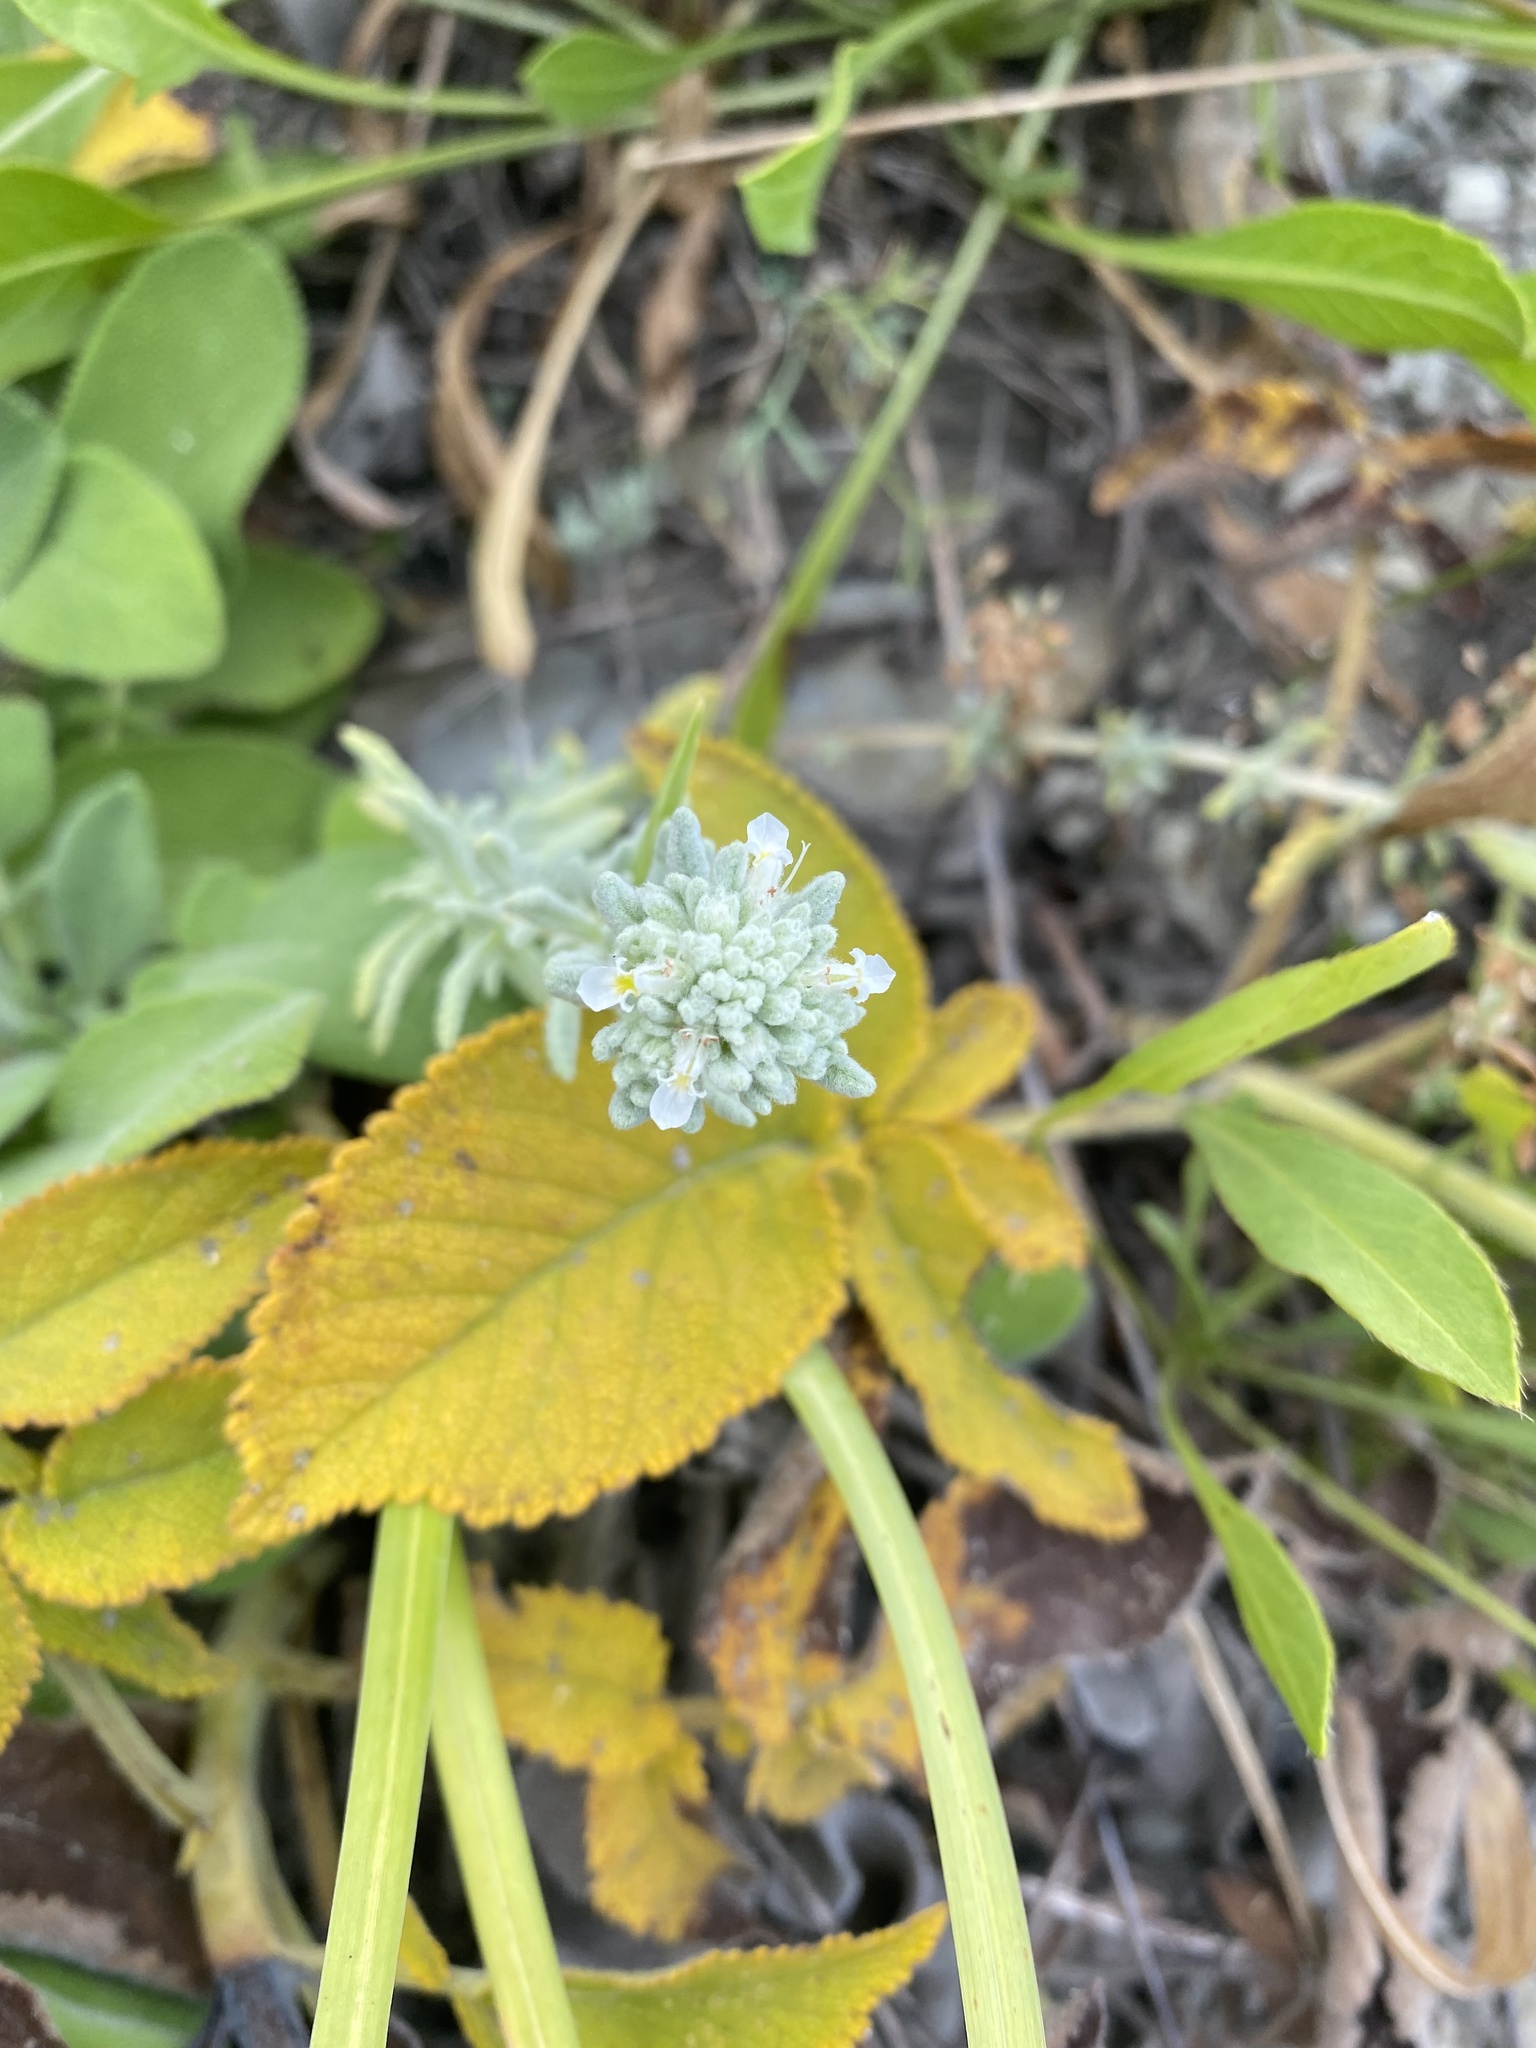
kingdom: Plantae
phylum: Tracheophyta
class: Magnoliopsida
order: Lamiales
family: Lamiaceae
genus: Teucrium
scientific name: Teucrium polium
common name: Poley
